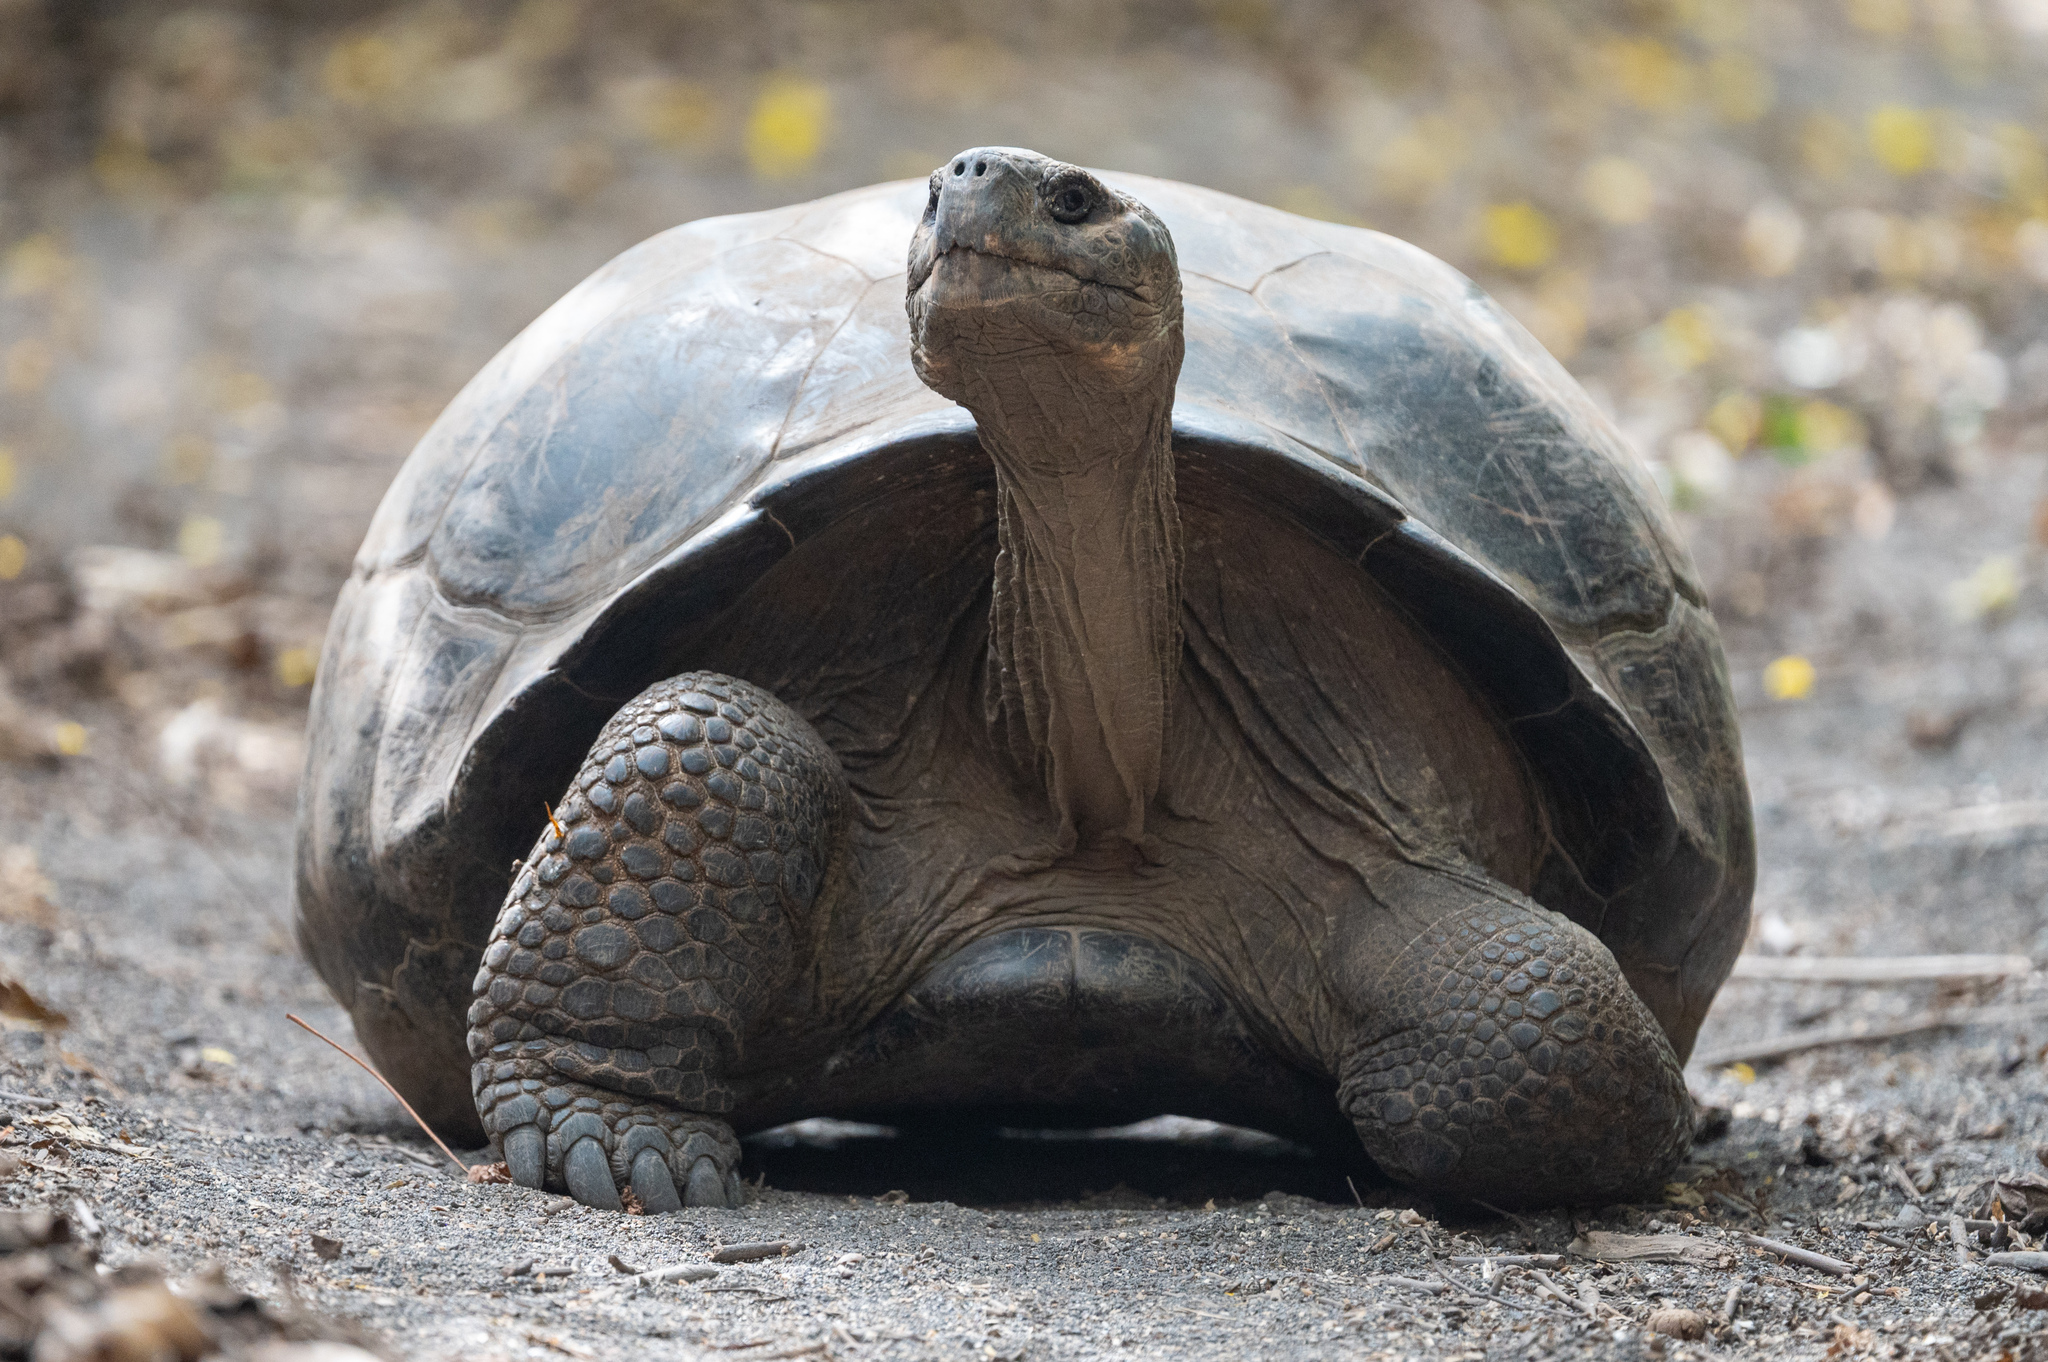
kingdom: Animalia
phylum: Chordata
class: Testudines
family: Testudinidae
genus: Chelonoidis
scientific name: Chelonoidis niger
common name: Charles island giant tortoise
